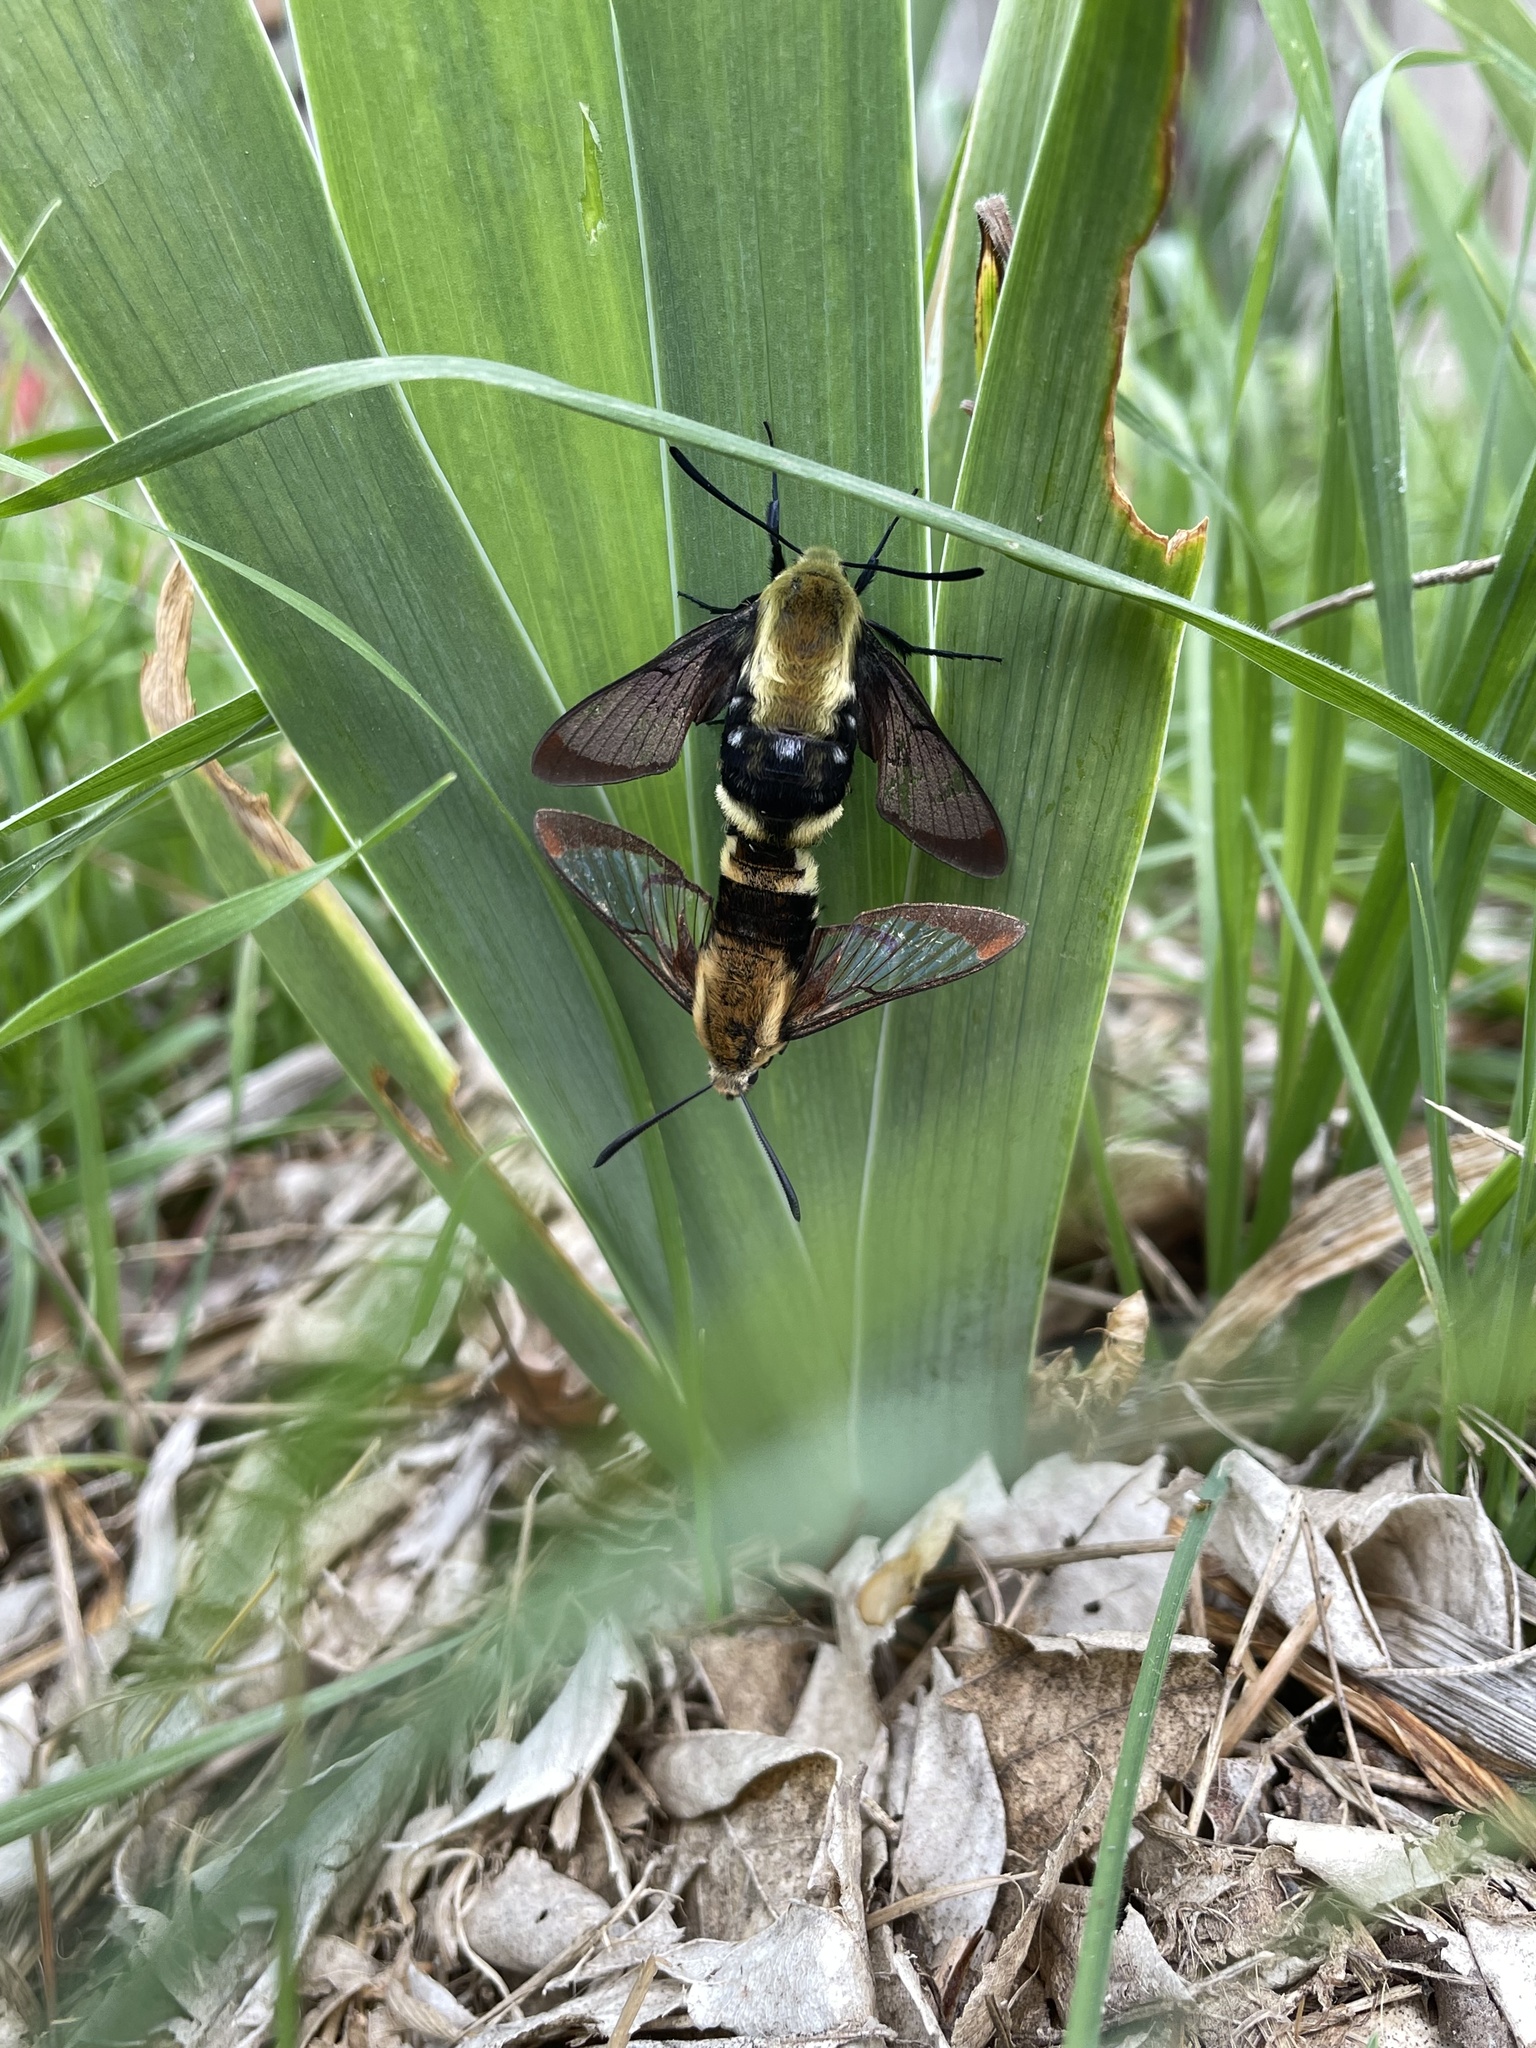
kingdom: Animalia
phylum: Arthropoda
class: Insecta
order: Lepidoptera
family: Sphingidae
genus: Hemaris
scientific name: Hemaris diffinis
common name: Bumblebee moth
